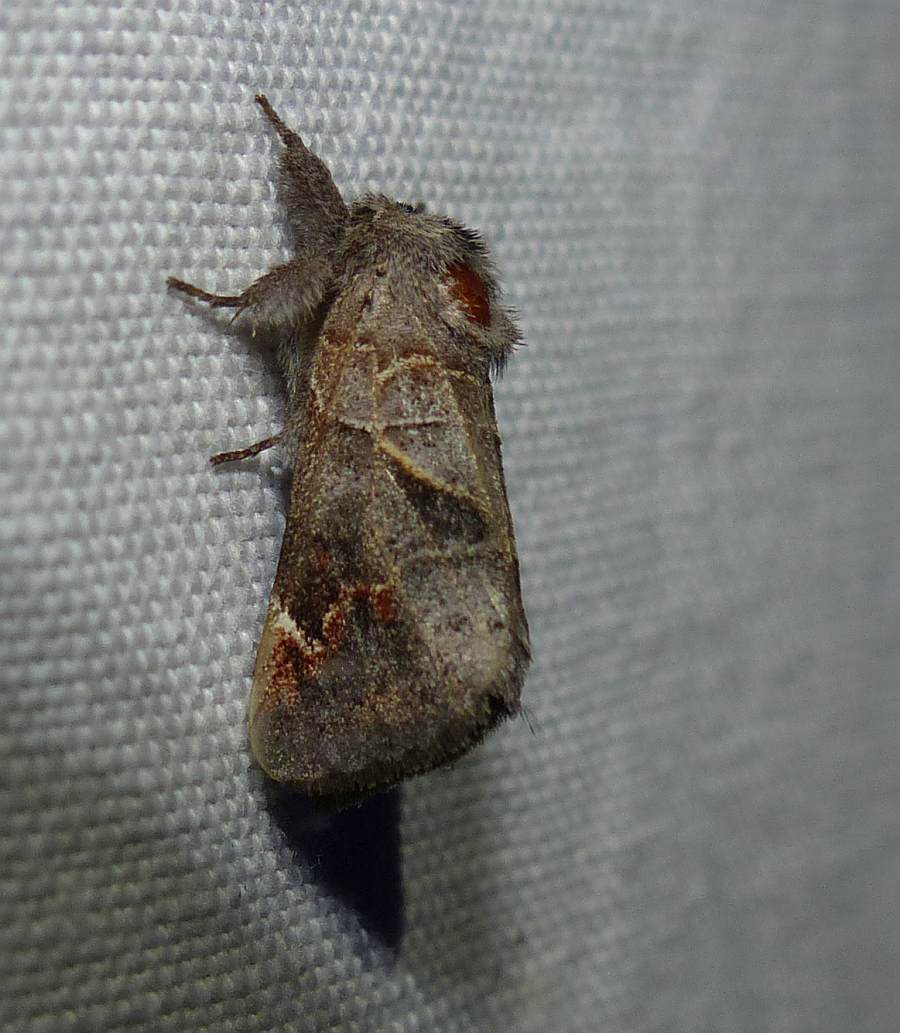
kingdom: Animalia
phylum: Arthropoda
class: Insecta
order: Lepidoptera
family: Notodontidae
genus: Clostera
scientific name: Clostera apicalis
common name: Apical prominent
